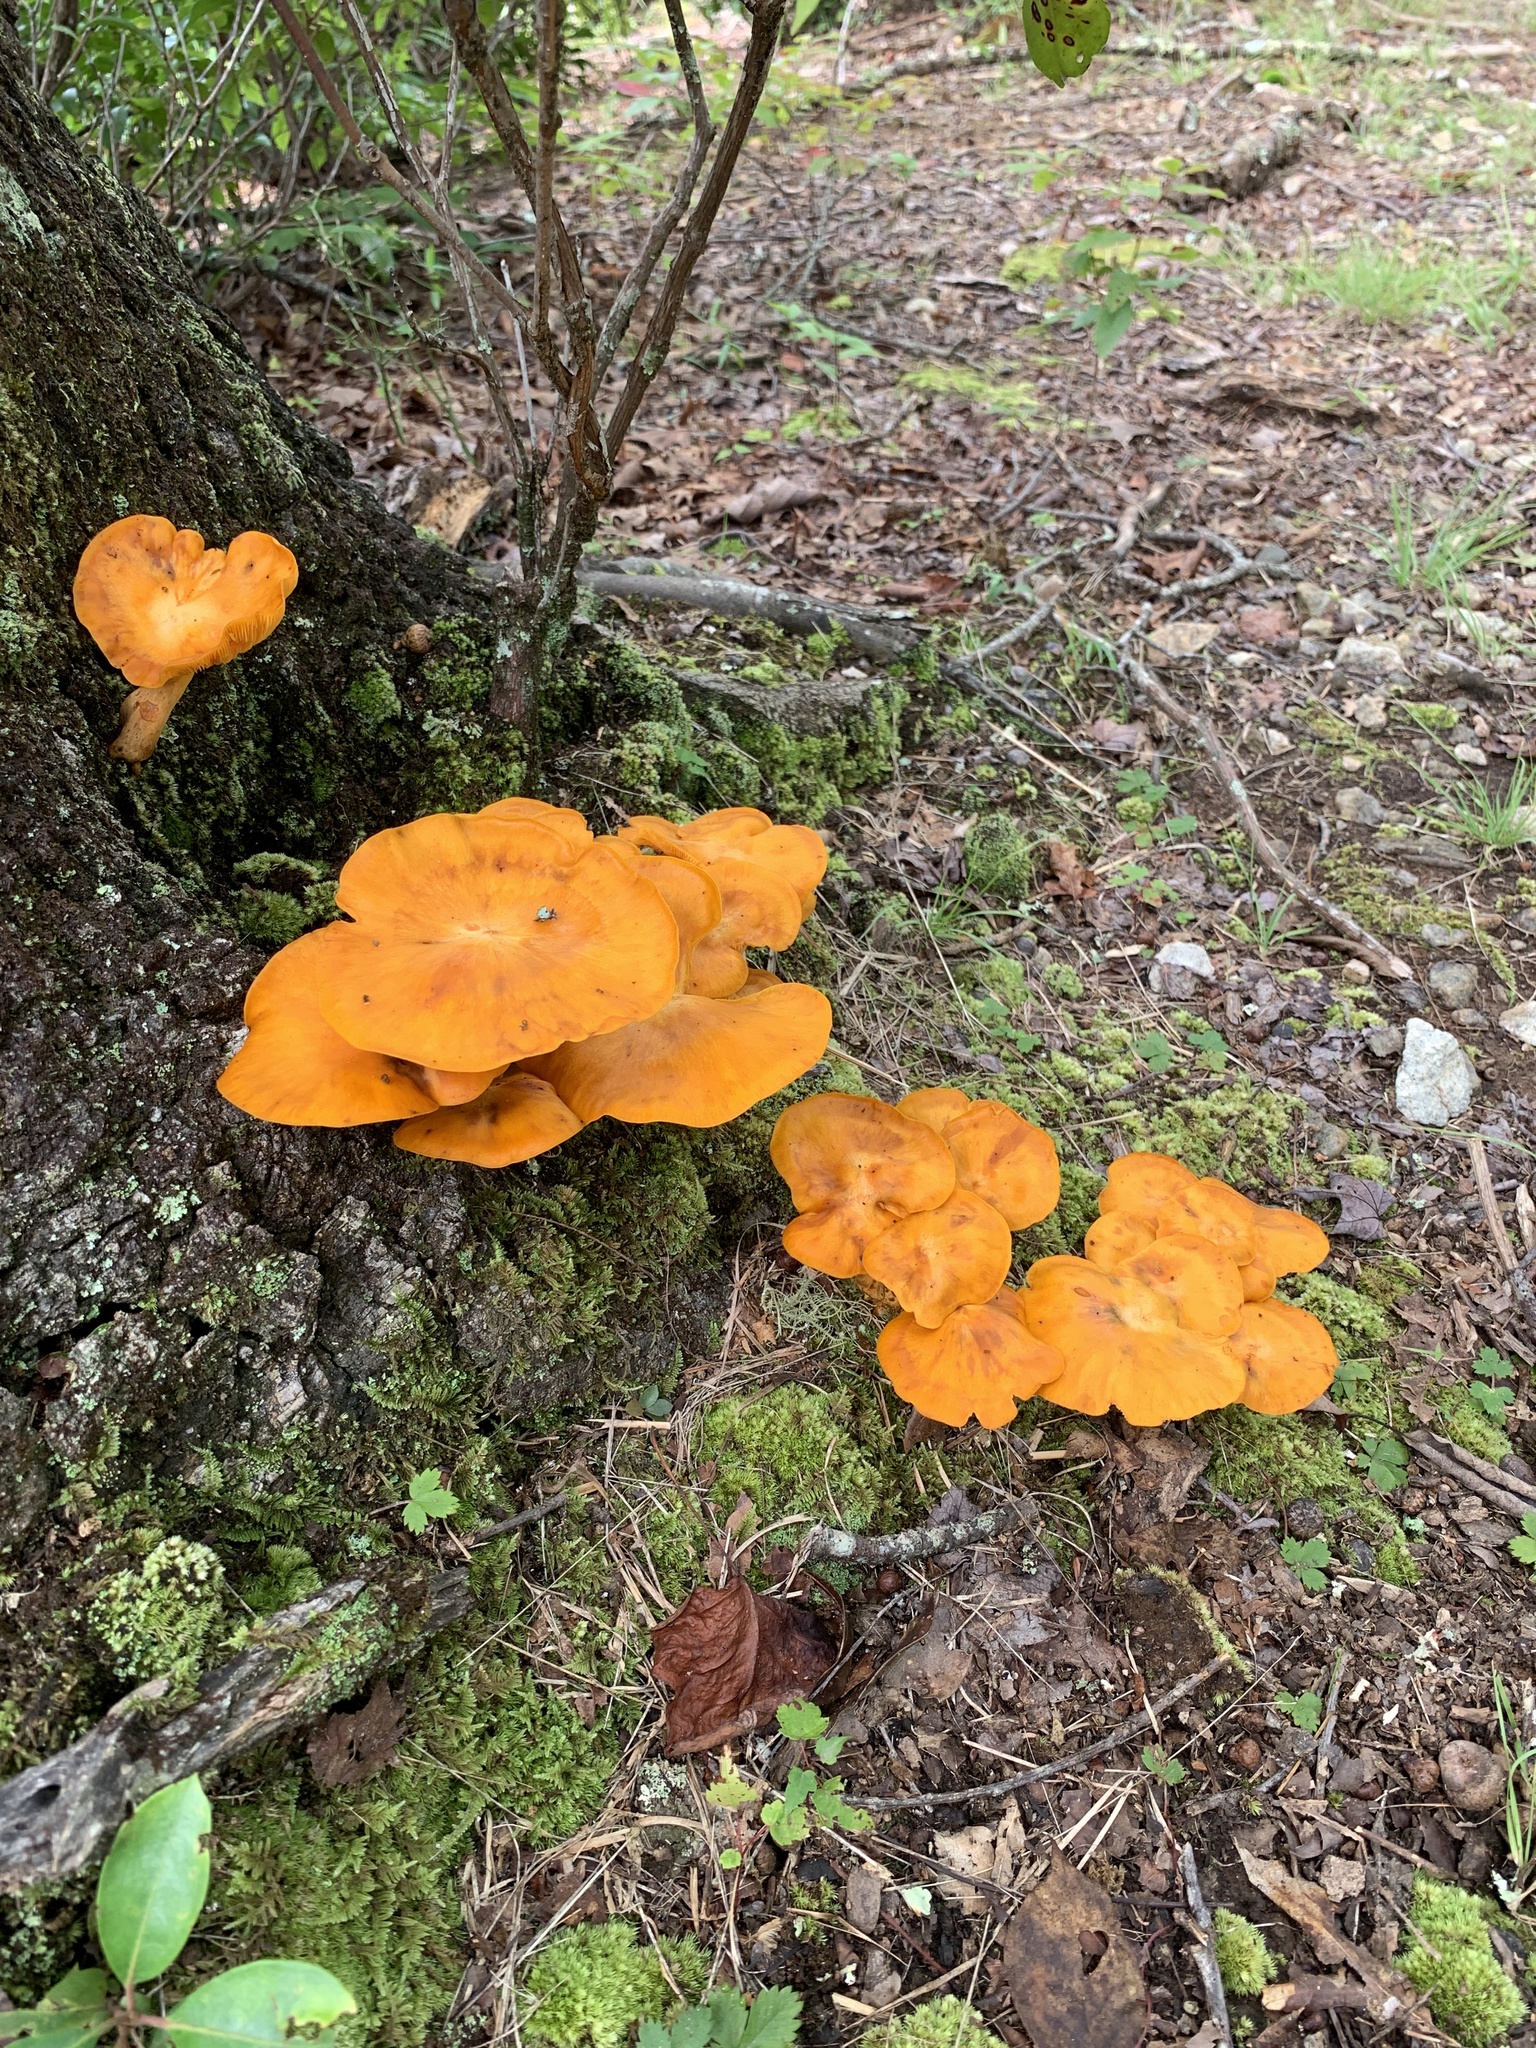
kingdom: Fungi
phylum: Basidiomycota
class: Agaricomycetes
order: Agaricales
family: Omphalotaceae
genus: Omphalotus
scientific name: Omphalotus illudens
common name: Jack o lantern
